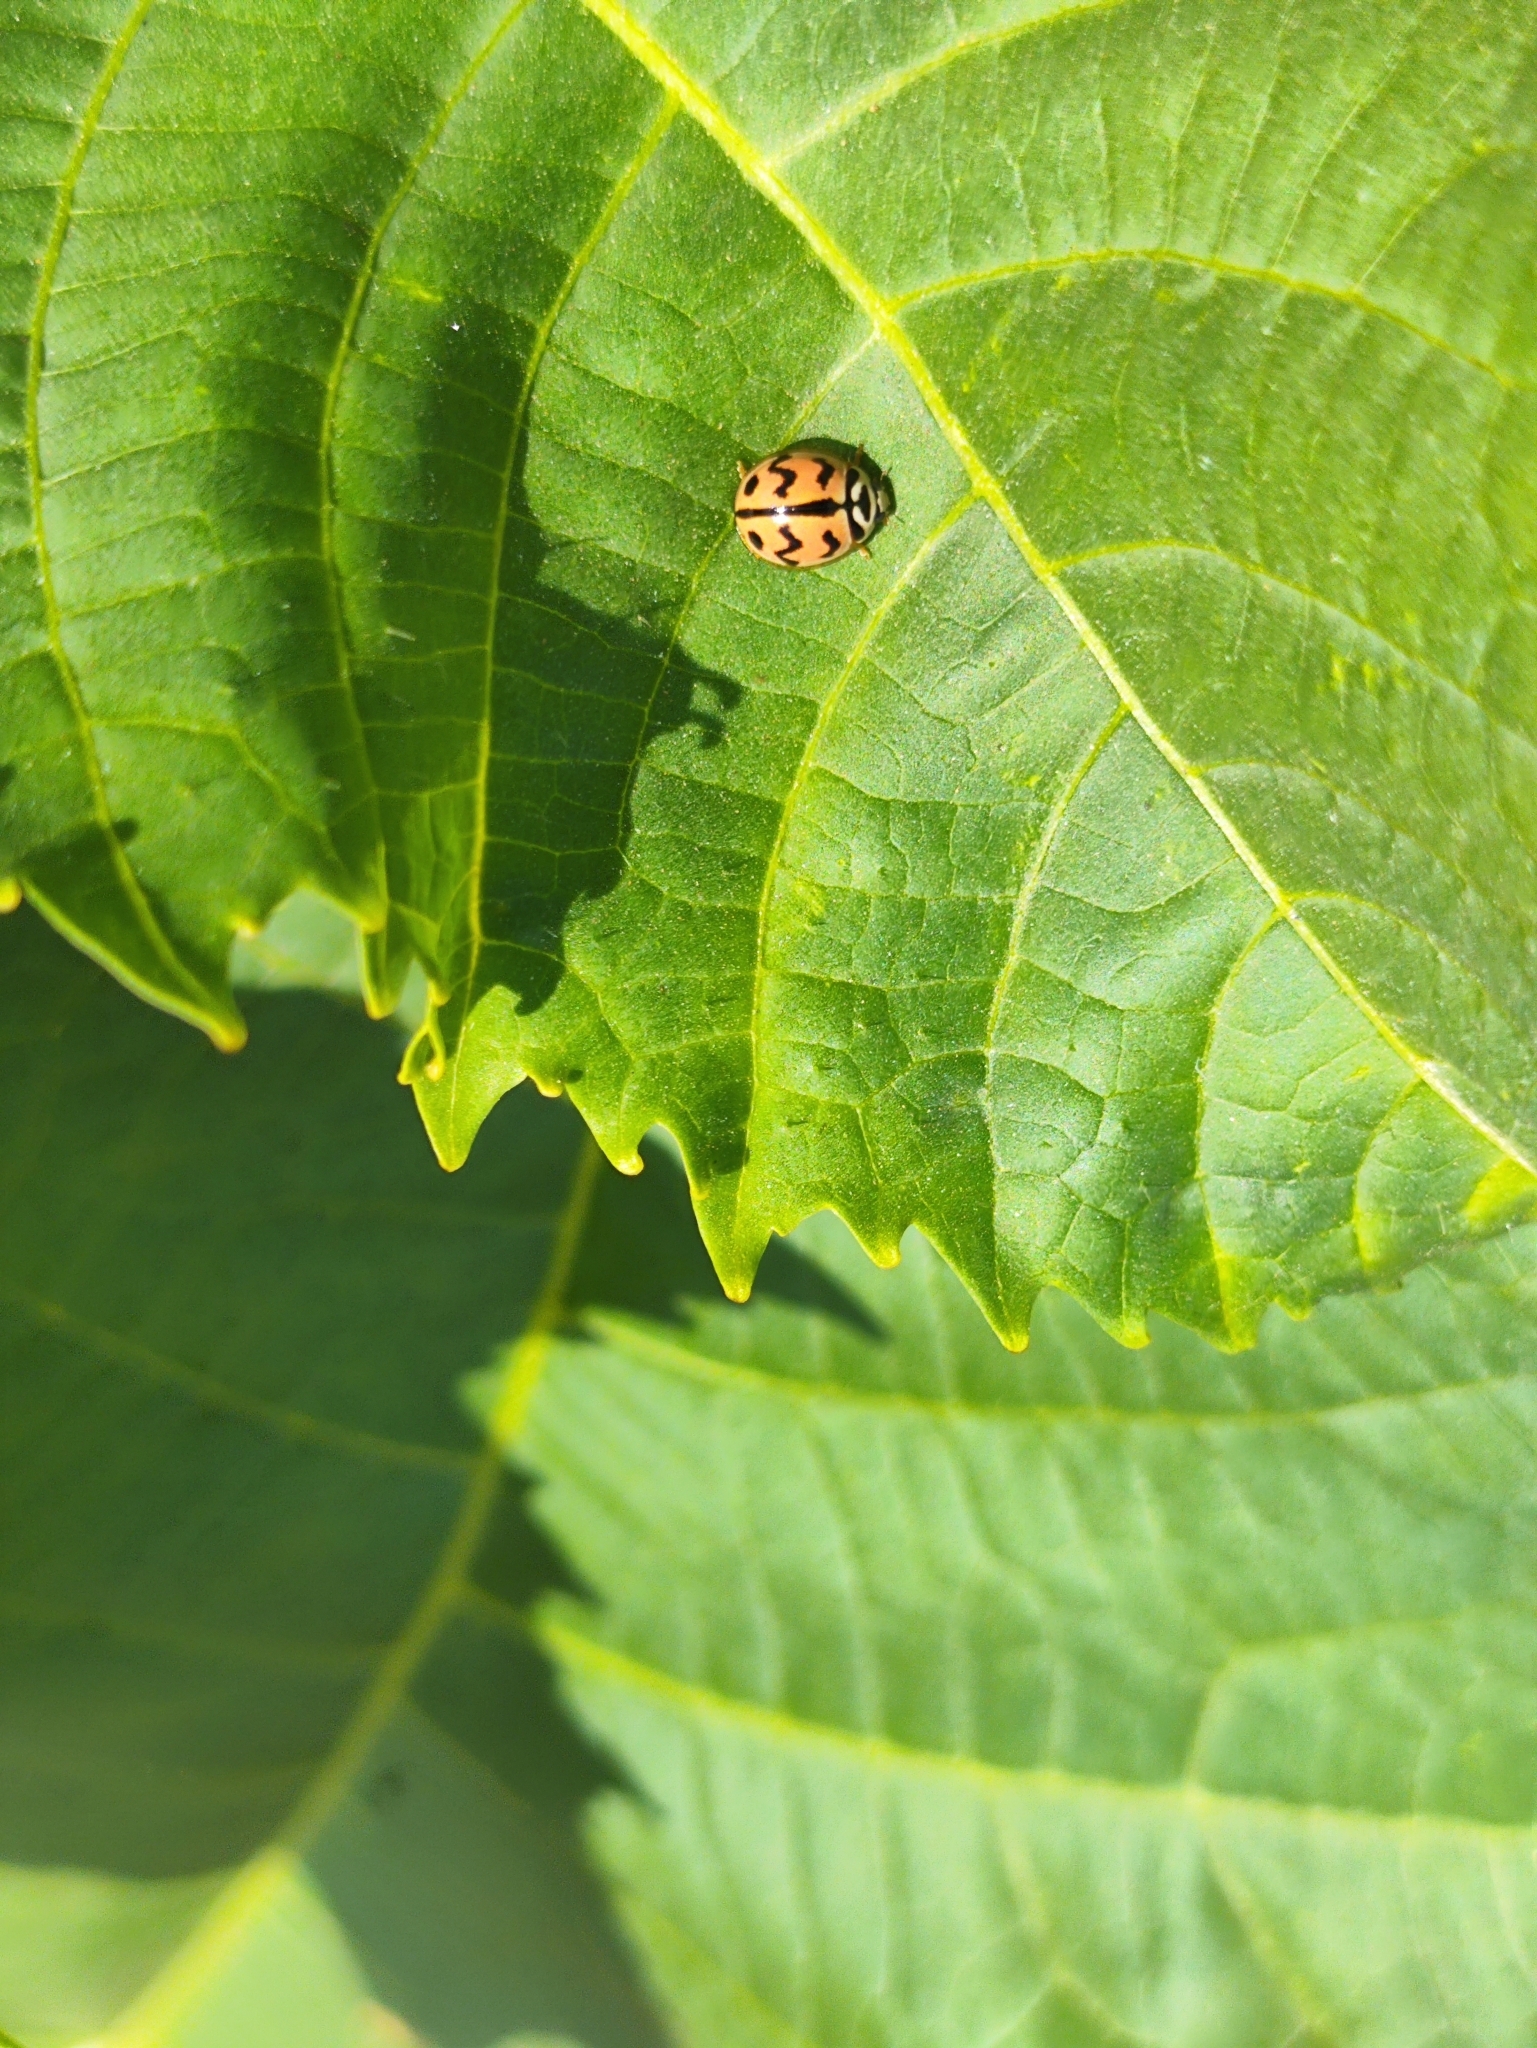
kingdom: Animalia
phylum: Arthropoda
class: Insecta
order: Coleoptera
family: Coccinellidae
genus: Cheilomenes
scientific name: Cheilomenes sexmaculata
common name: Ladybird beetle
